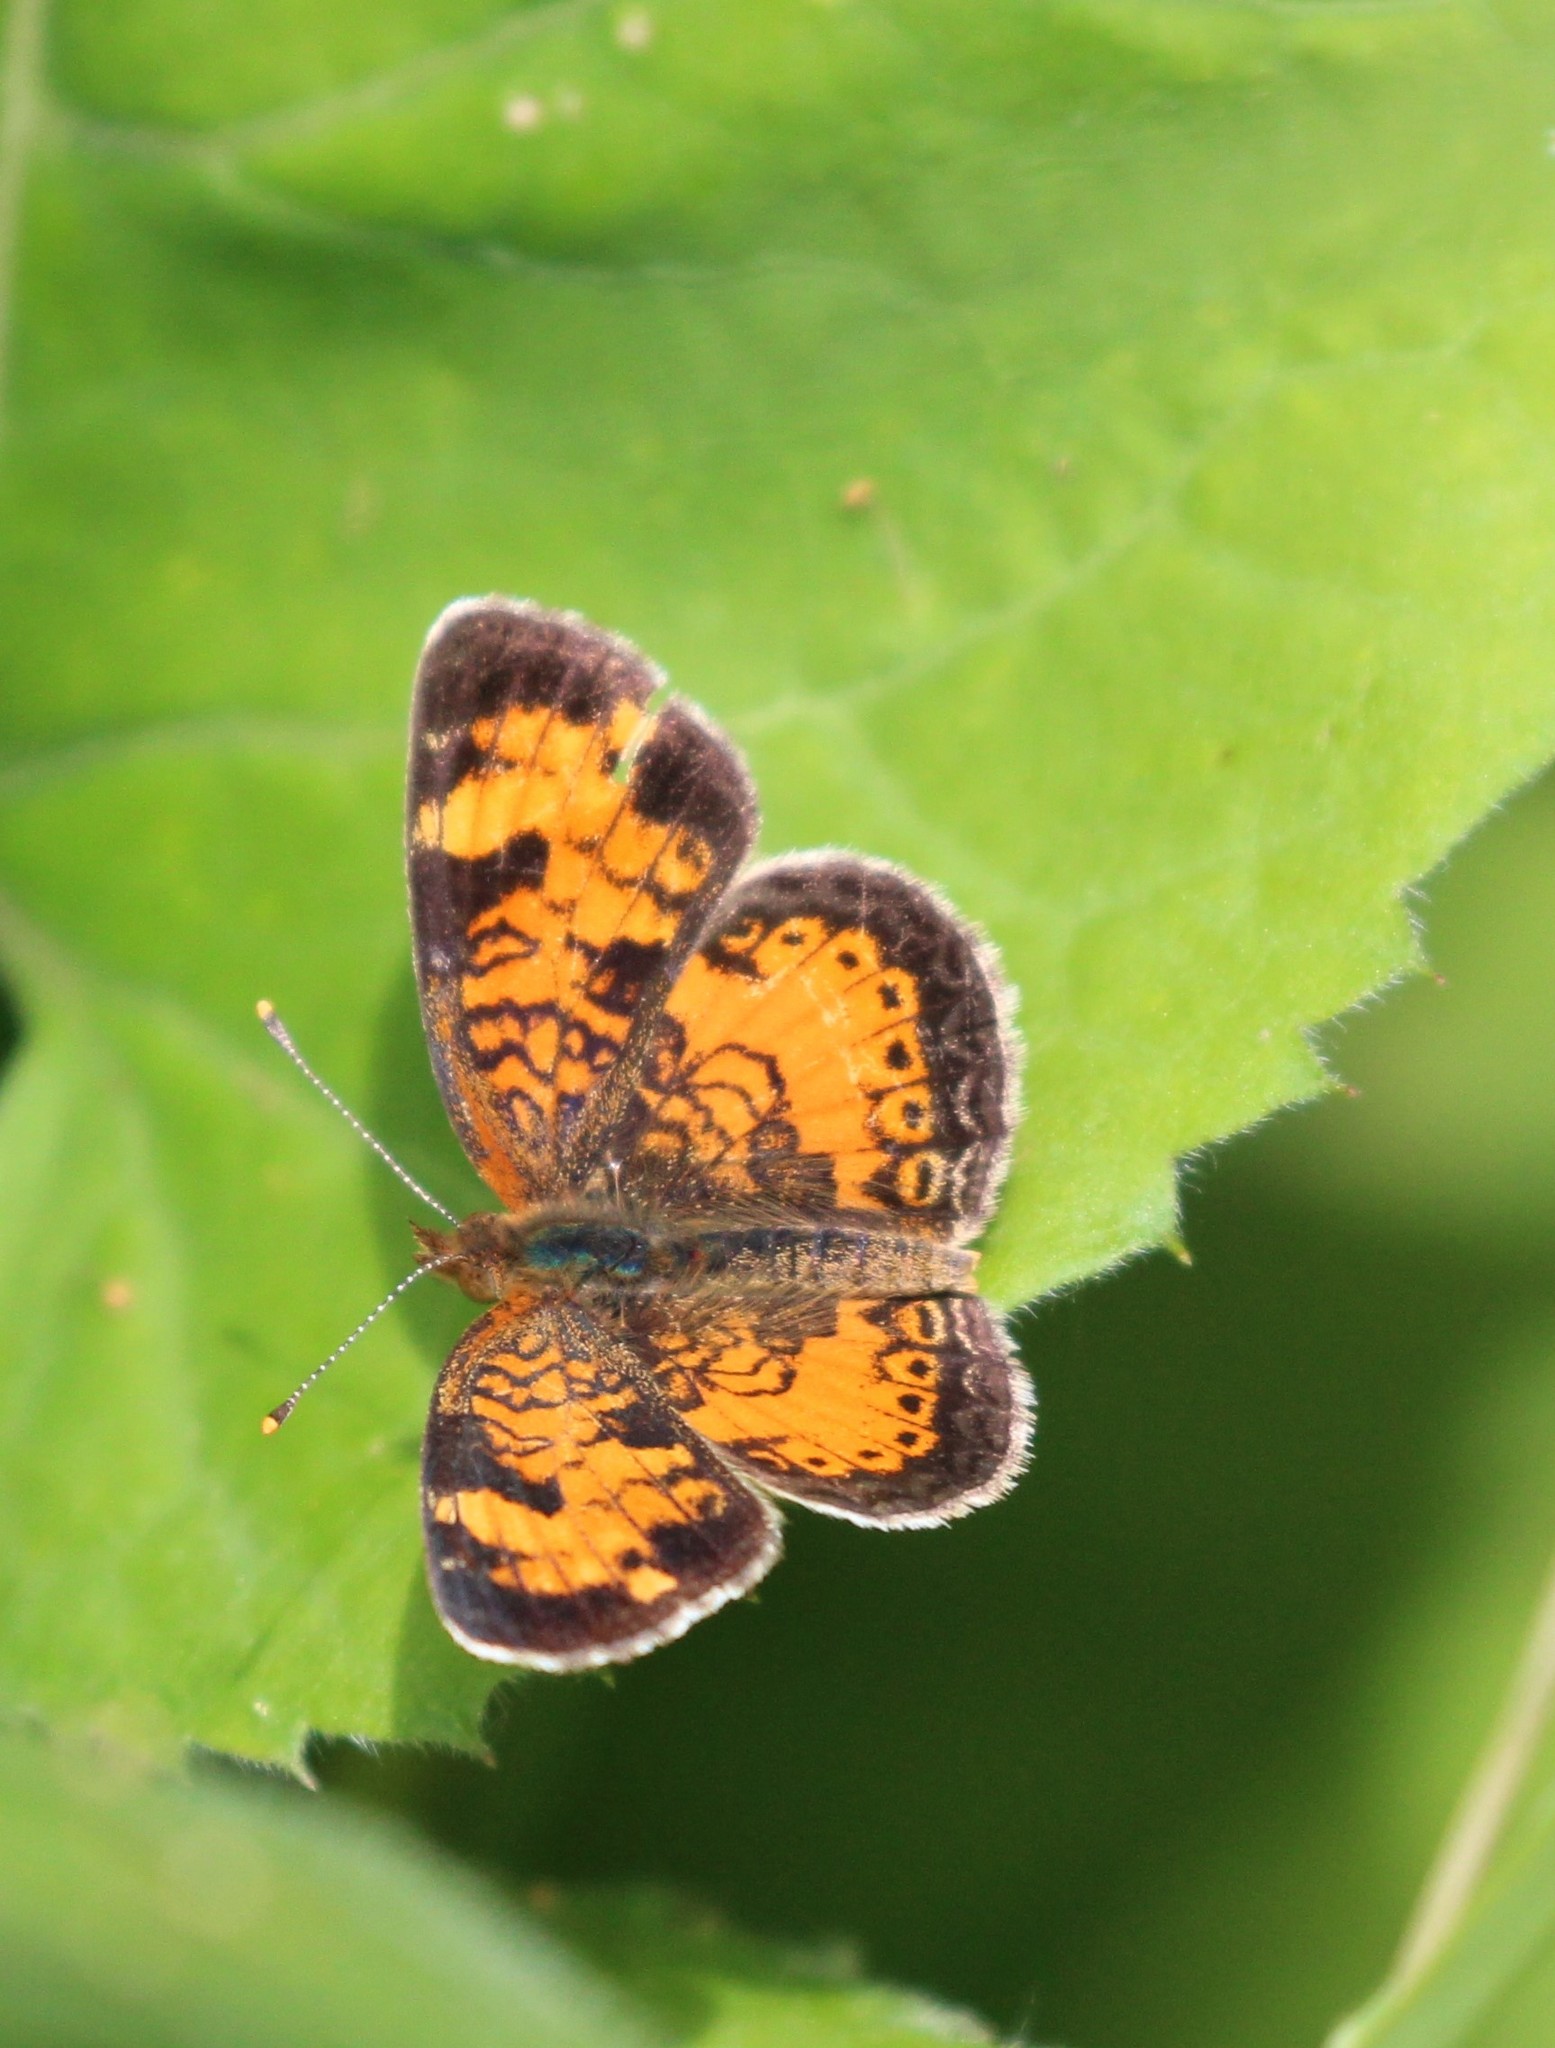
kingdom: Animalia
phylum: Arthropoda
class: Insecta
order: Lepidoptera
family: Nymphalidae
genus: Phyciodes
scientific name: Phyciodes tharos
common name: Pearl crescent
